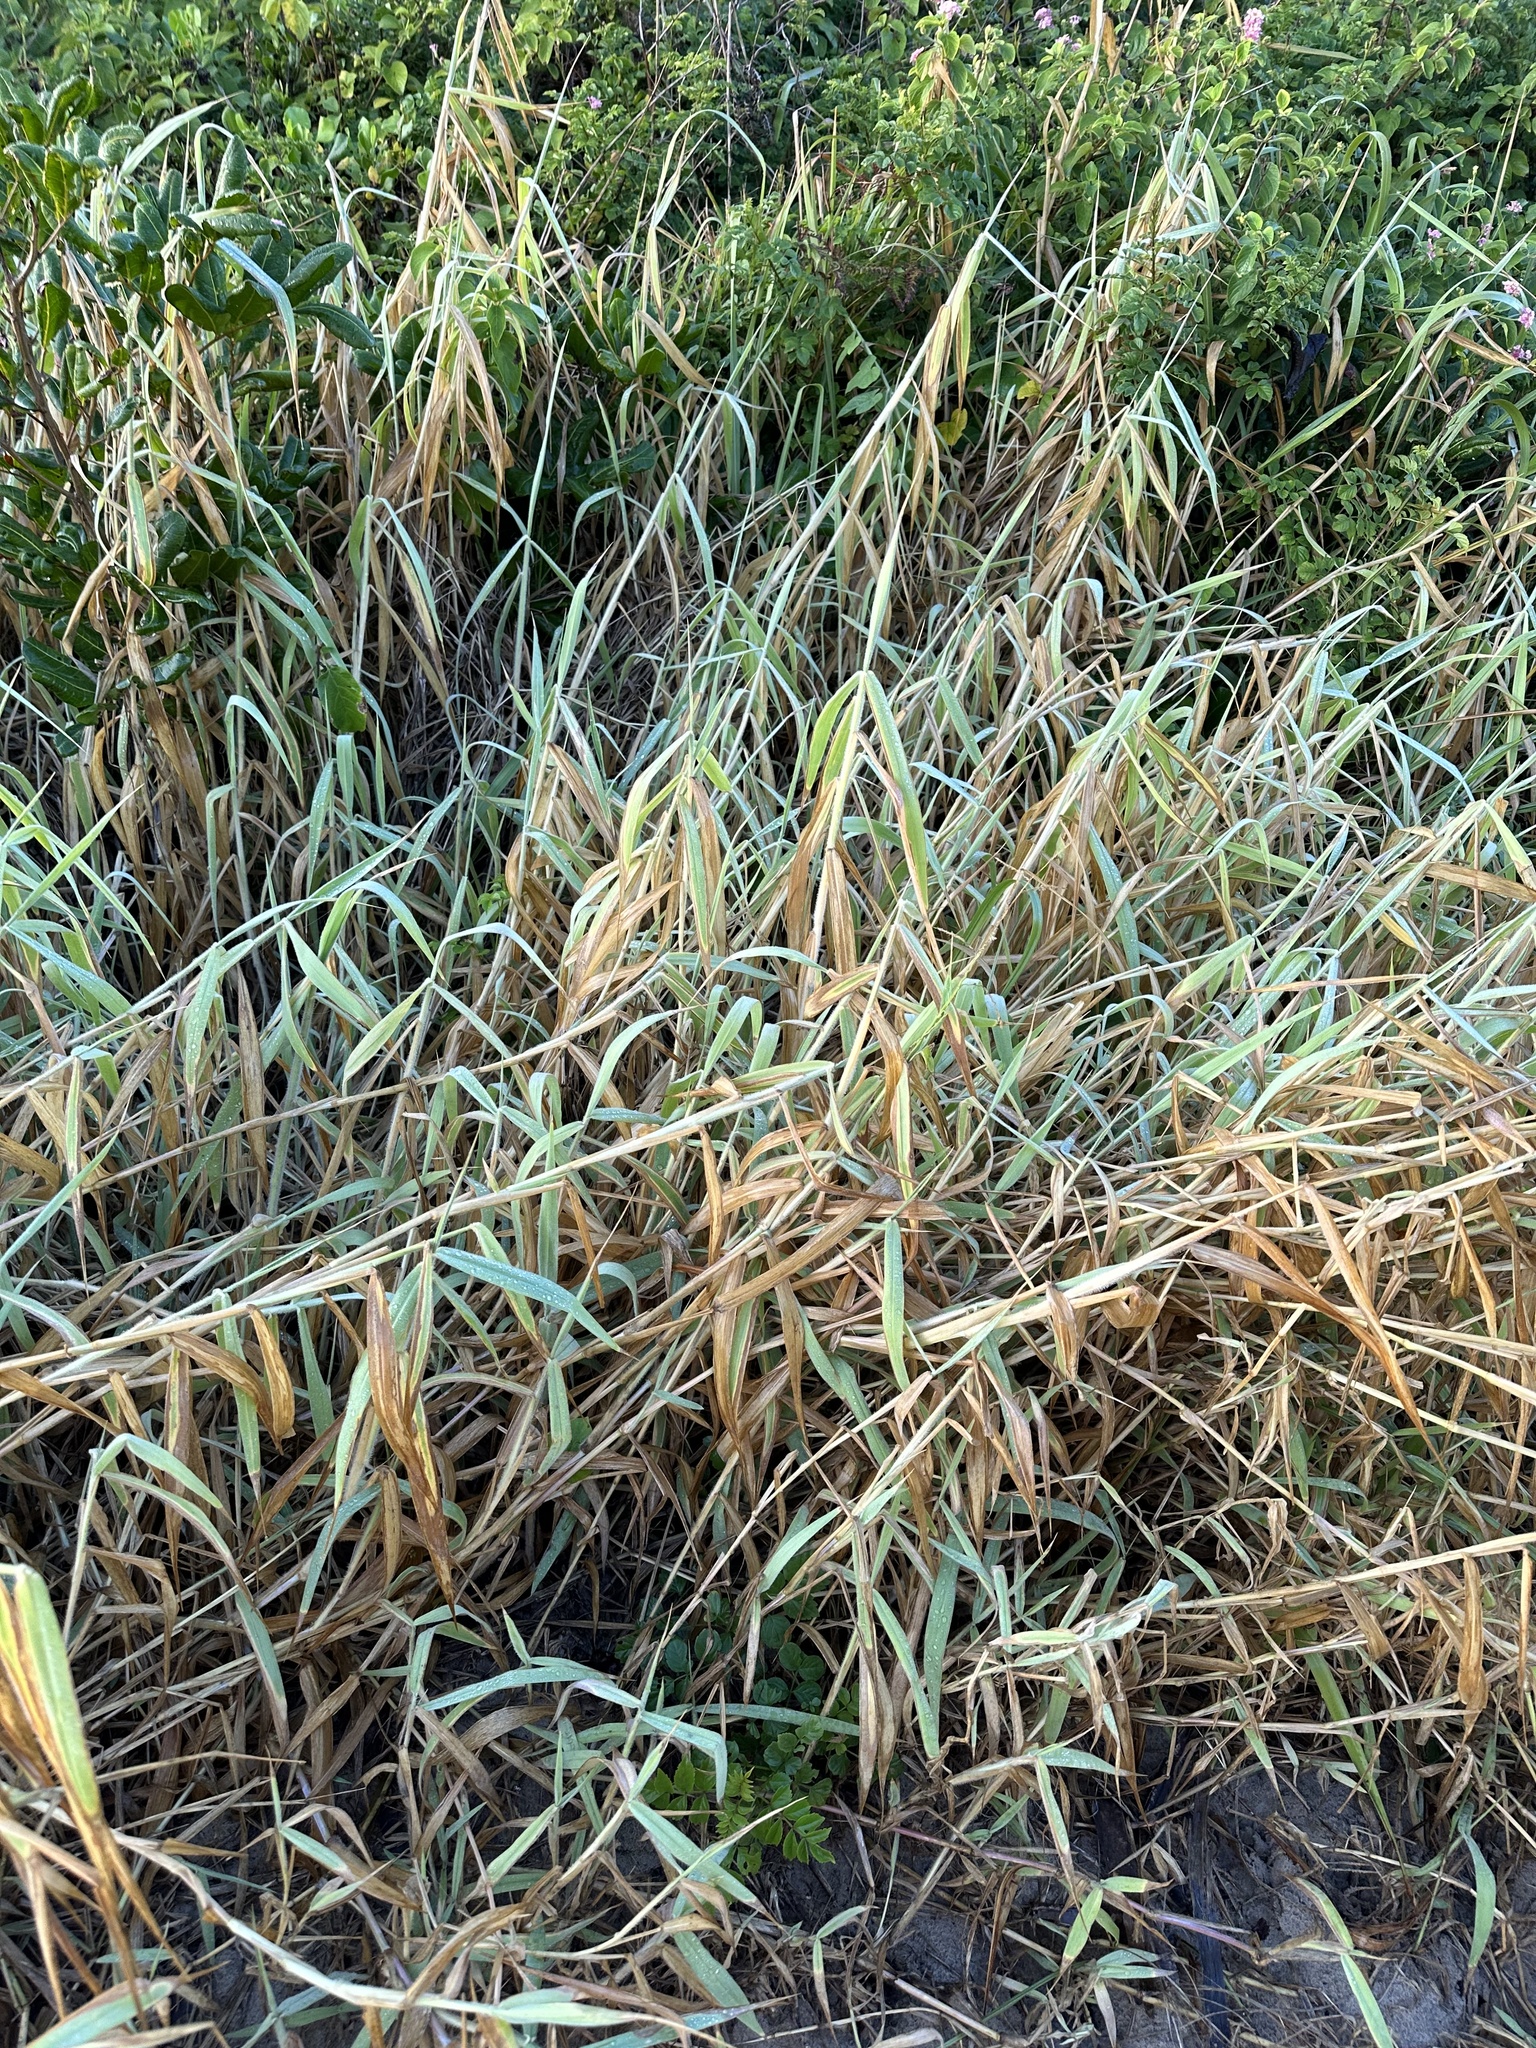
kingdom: Plantae
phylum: Tracheophyta
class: Liliopsida
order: Poales
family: Poaceae
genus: Melinis
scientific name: Melinis minutiflora
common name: Molassesgrass
